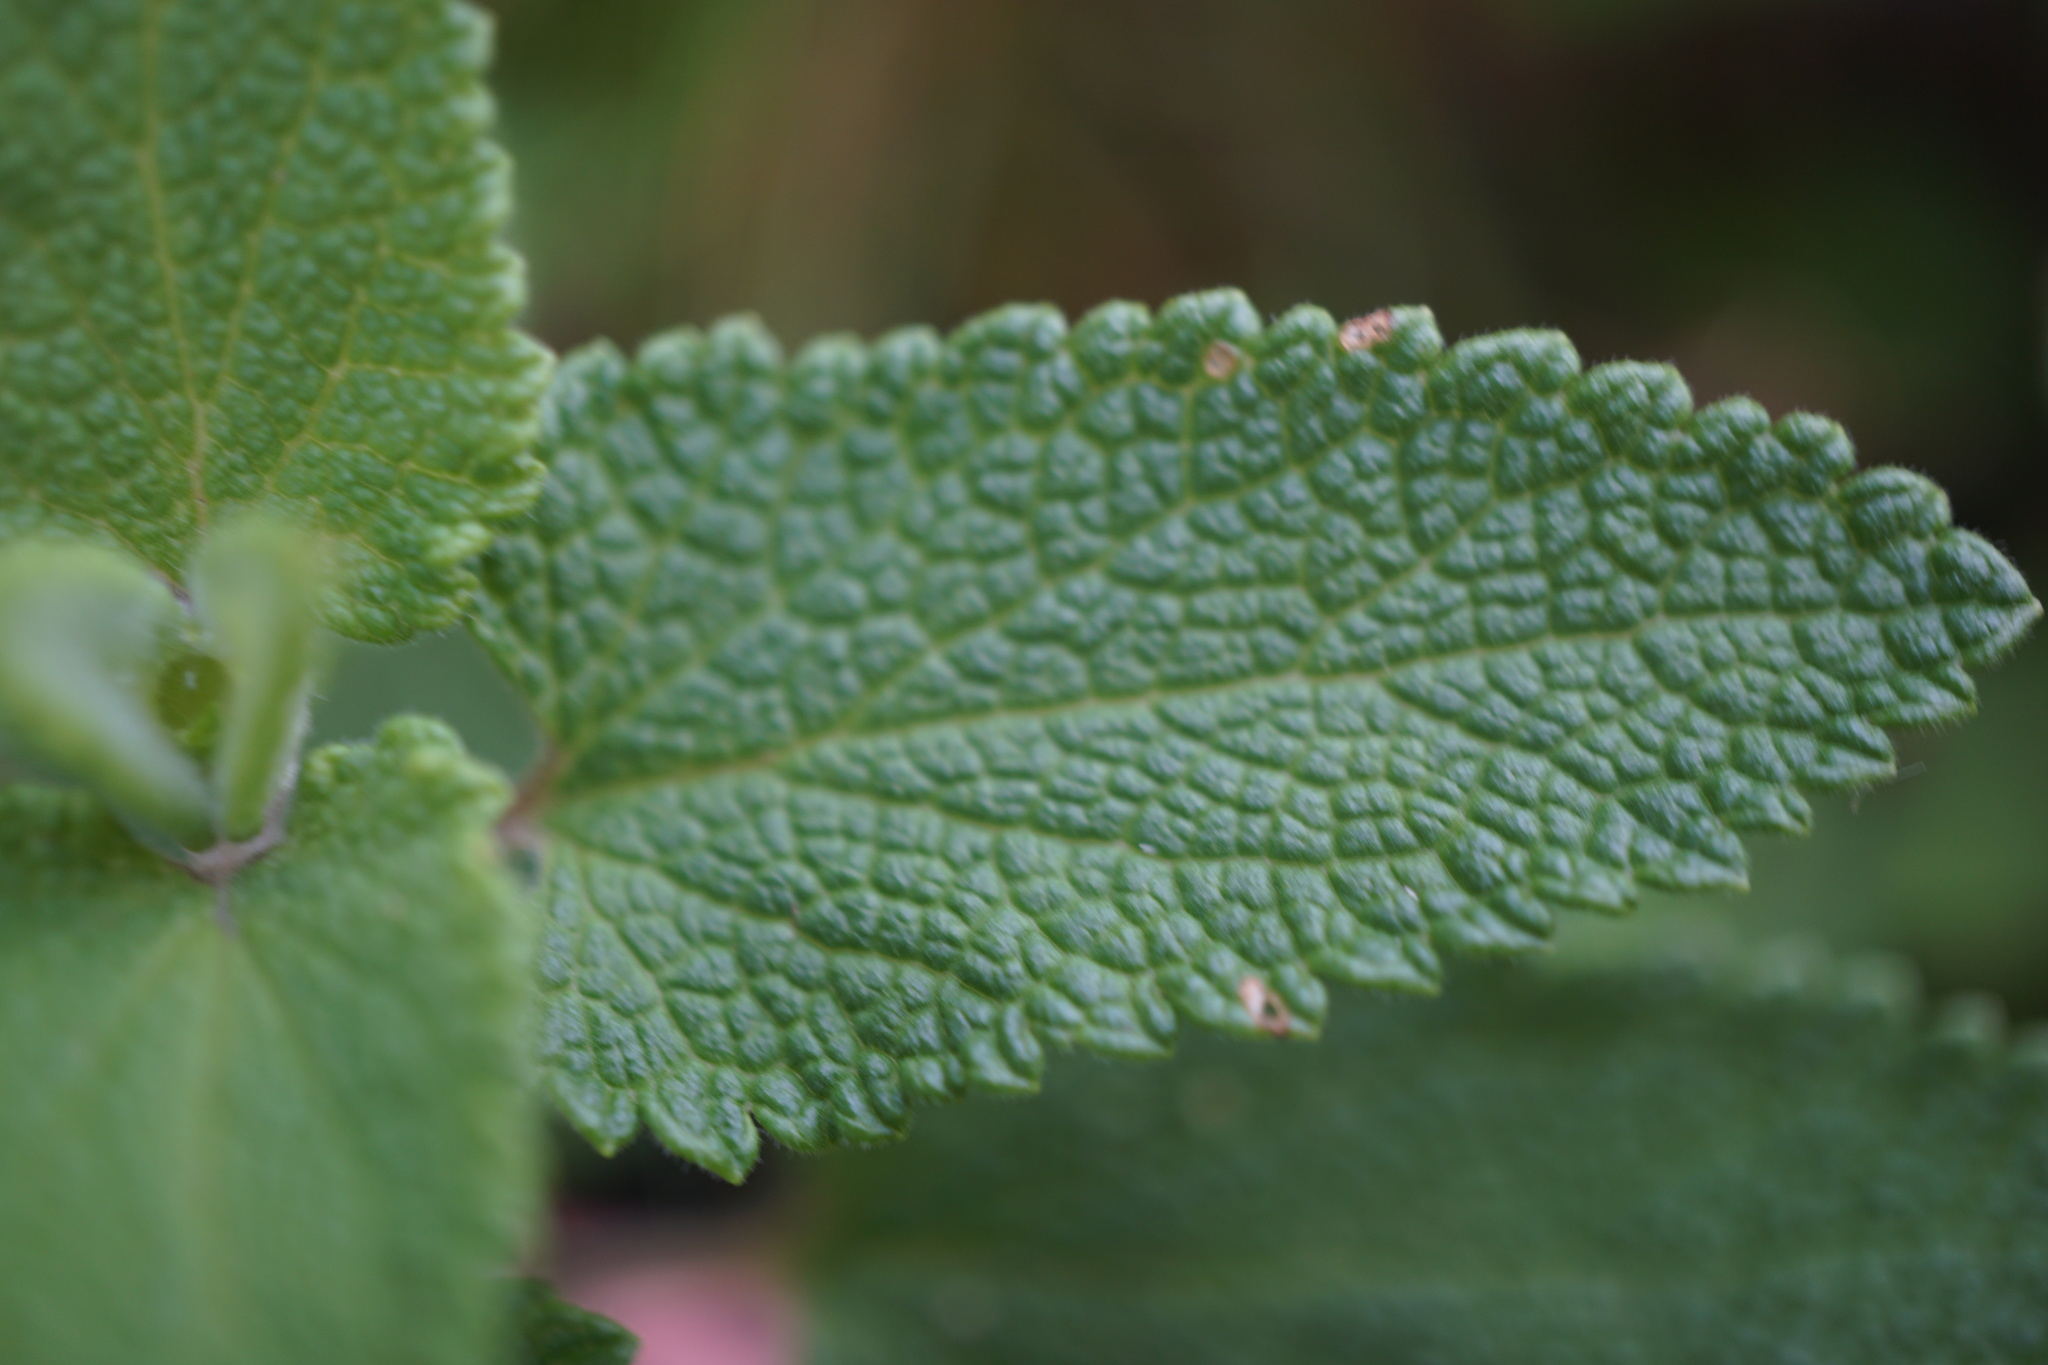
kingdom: Plantae
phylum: Tracheophyta
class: Magnoliopsida
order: Lamiales
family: Lamiaceae
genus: Teucrium
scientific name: Teucrium scorodonia
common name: Woodland germander
